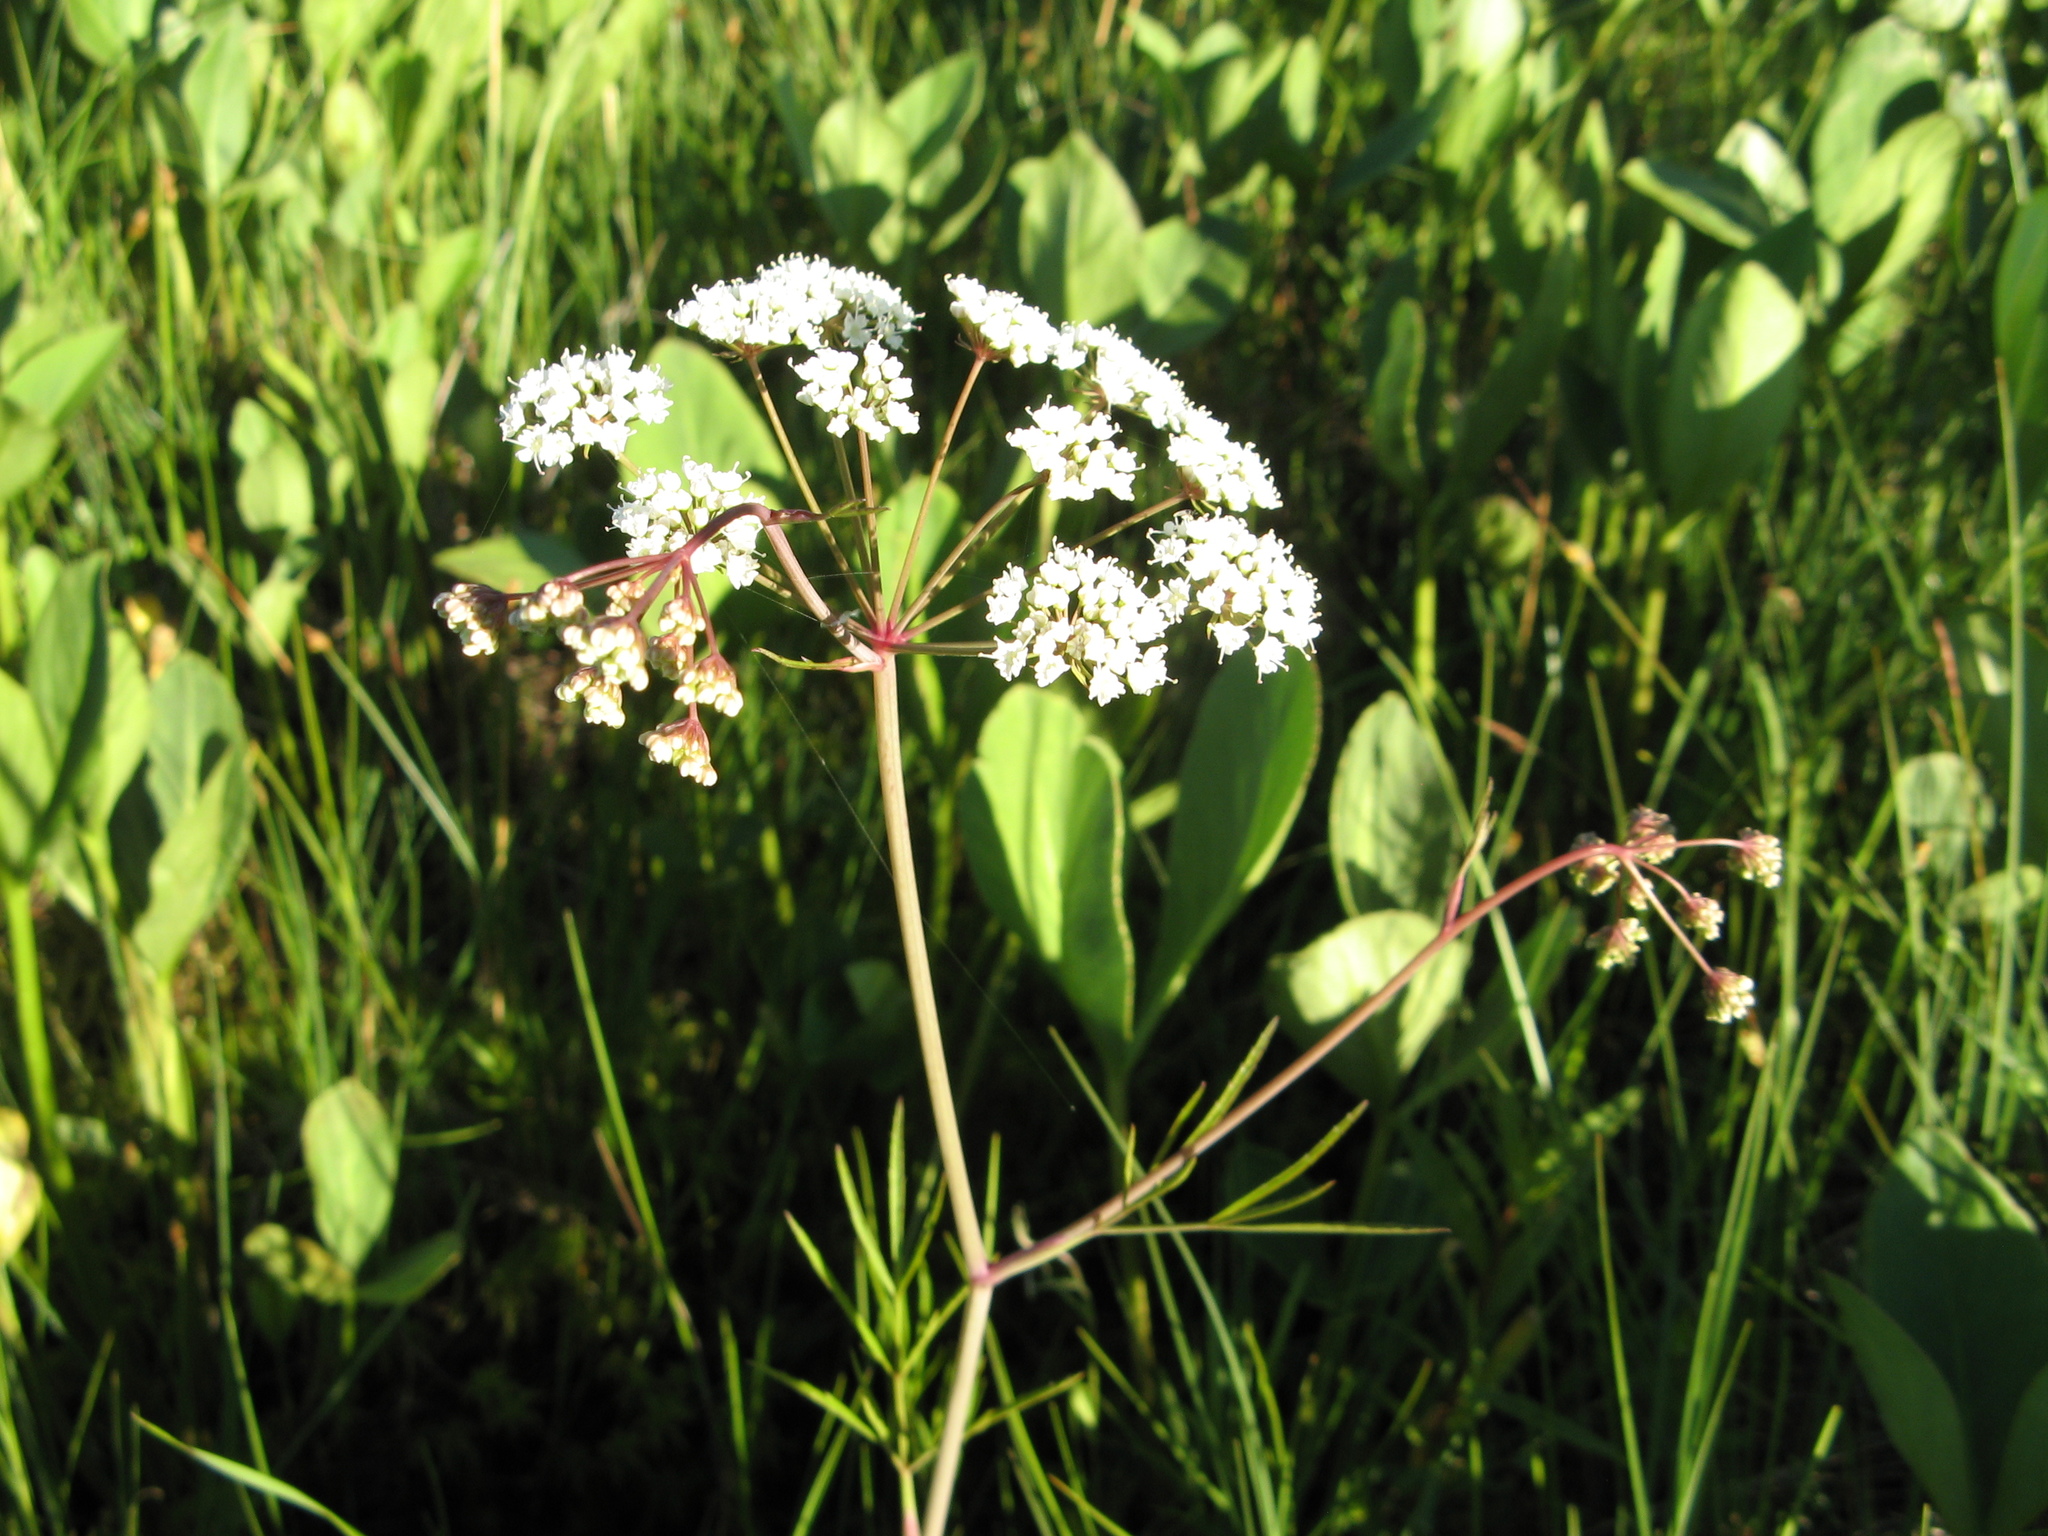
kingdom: Plantae
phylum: Tracheophyta
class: Magnoliopsida
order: Apiales
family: Apiaceae
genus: Cicuta
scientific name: Cicuta virosa
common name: Cowbane
